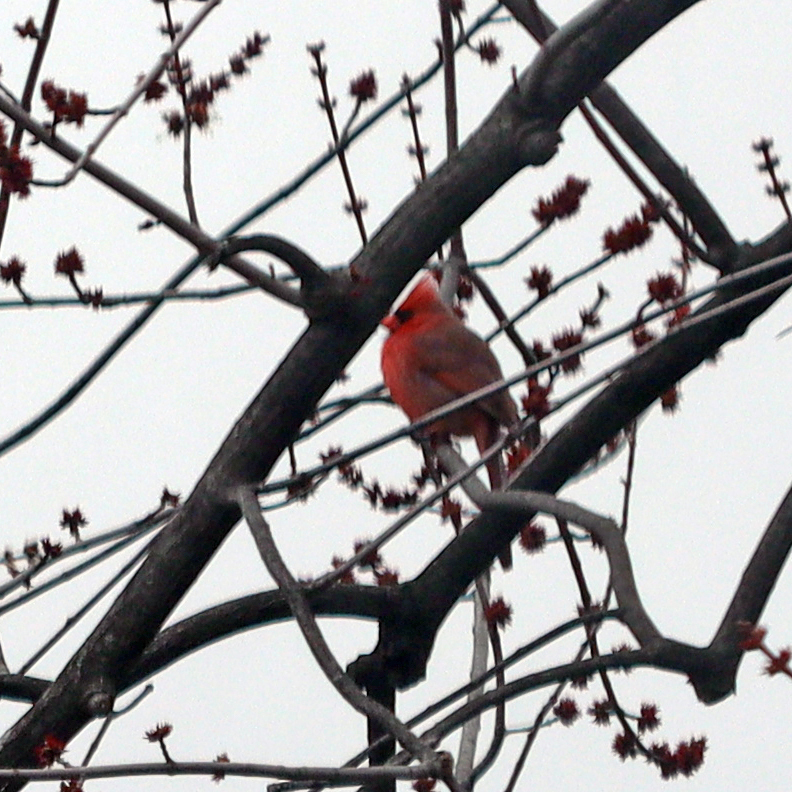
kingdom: Animalia
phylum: Chordata
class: Aves
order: Passeriformes
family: Cardinalidae
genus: Cardinalis
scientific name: Cardinalis cardinalis
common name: Northern cardinal
